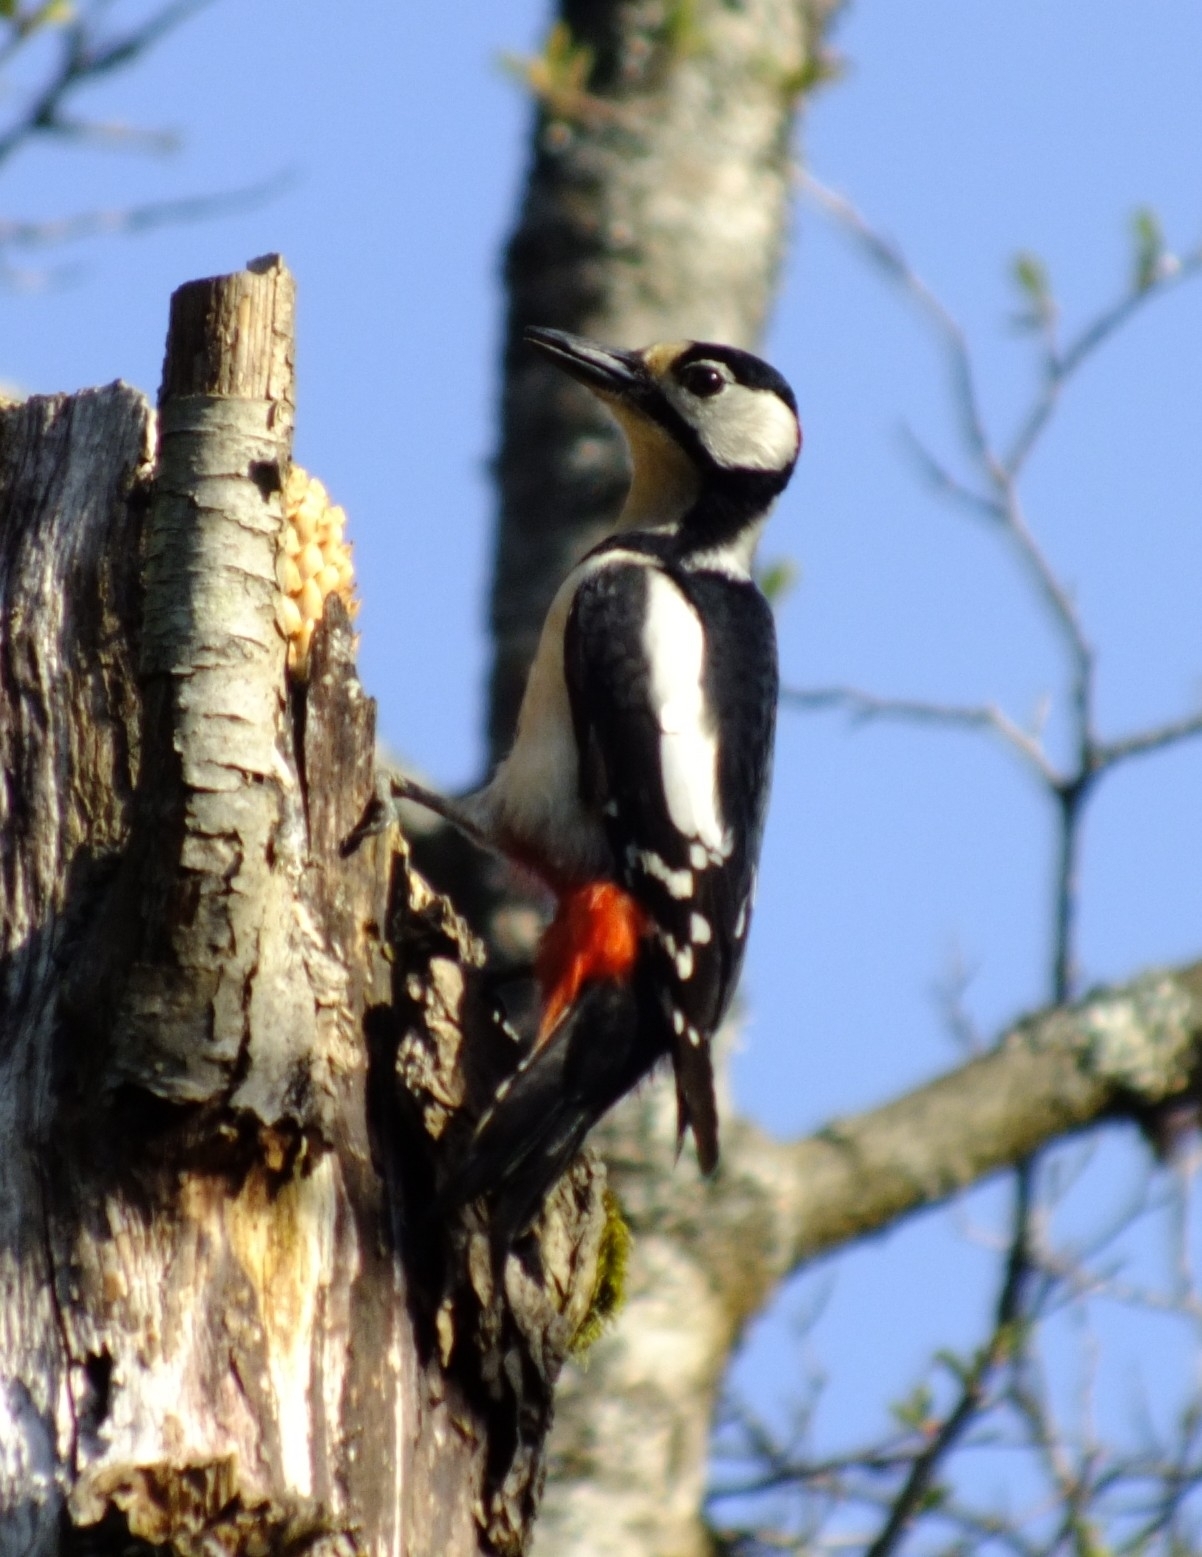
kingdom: Animalia
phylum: Chordata
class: Aves
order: Piciformes
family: Picidae
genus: Dendrocopos
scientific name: Dendrocopos major
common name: Great spotted woodpecker
